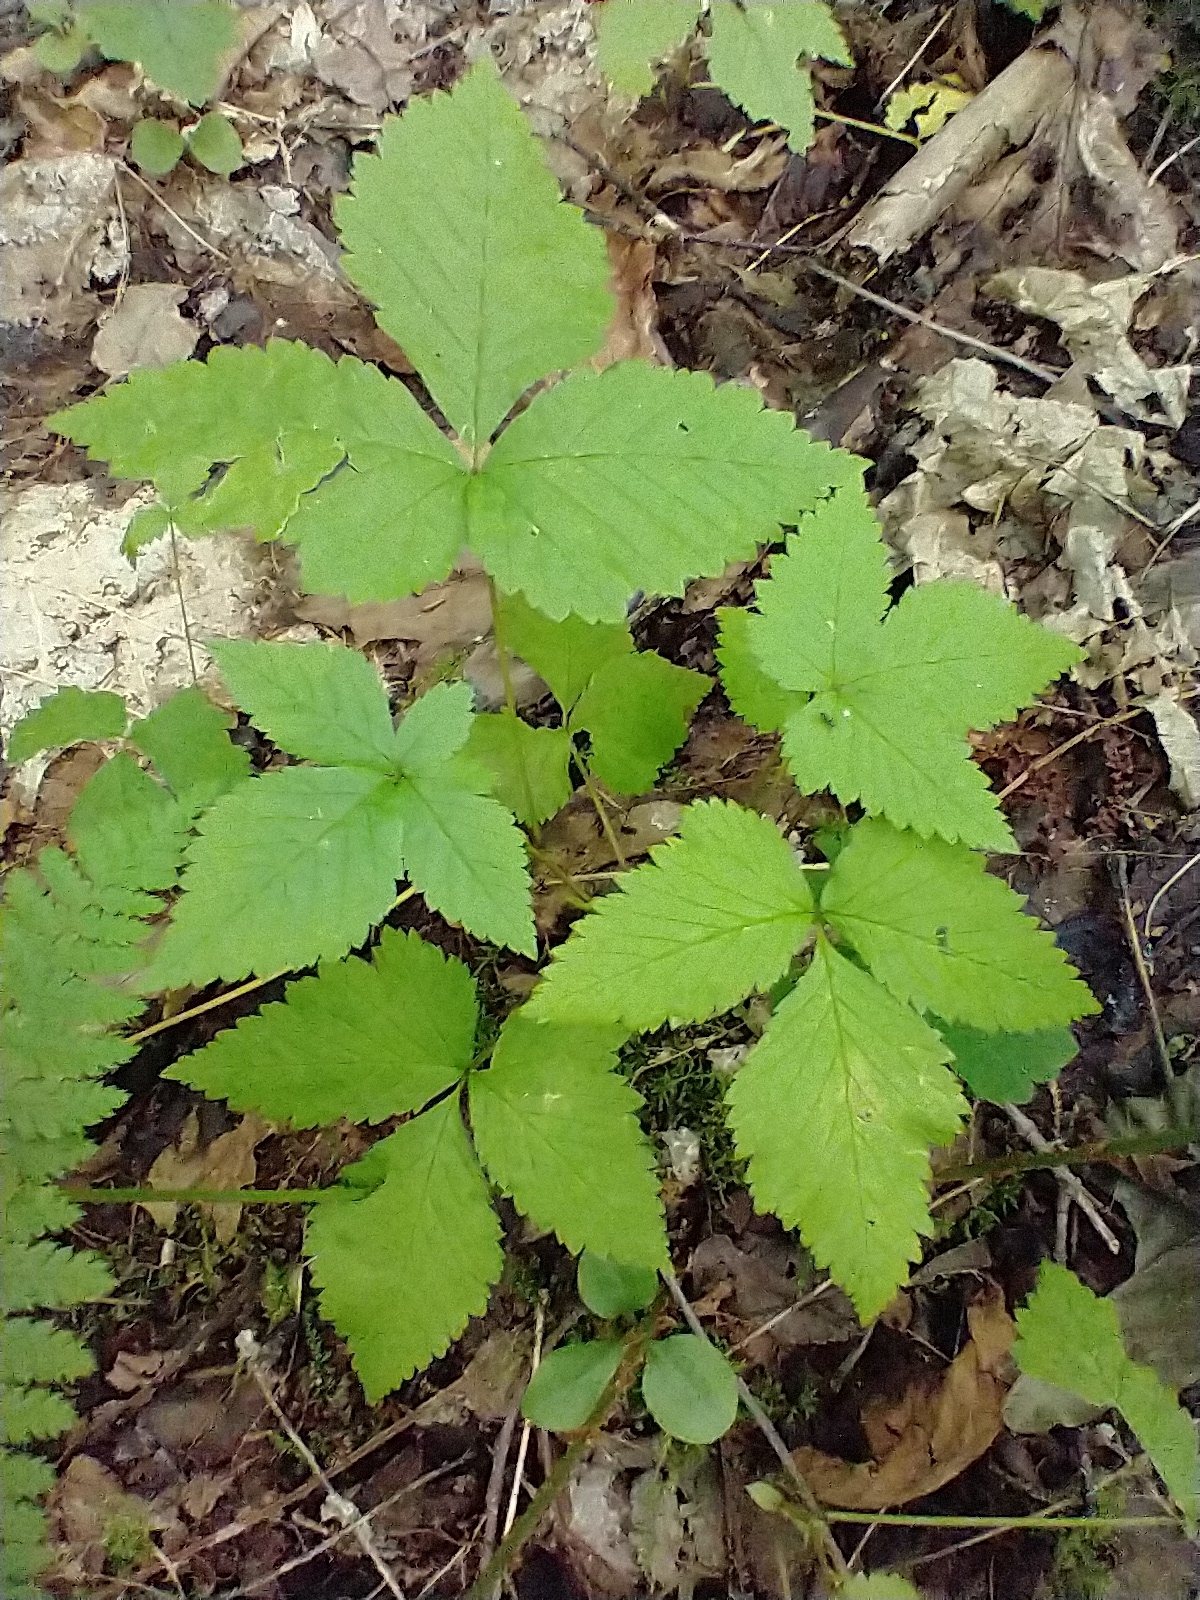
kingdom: Plantae
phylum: Tracheophyta
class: Magnoliopsida
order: Rosales
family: Rosaceae
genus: Rubus
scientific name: Rubus pubescens
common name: Dwarf raspberry
